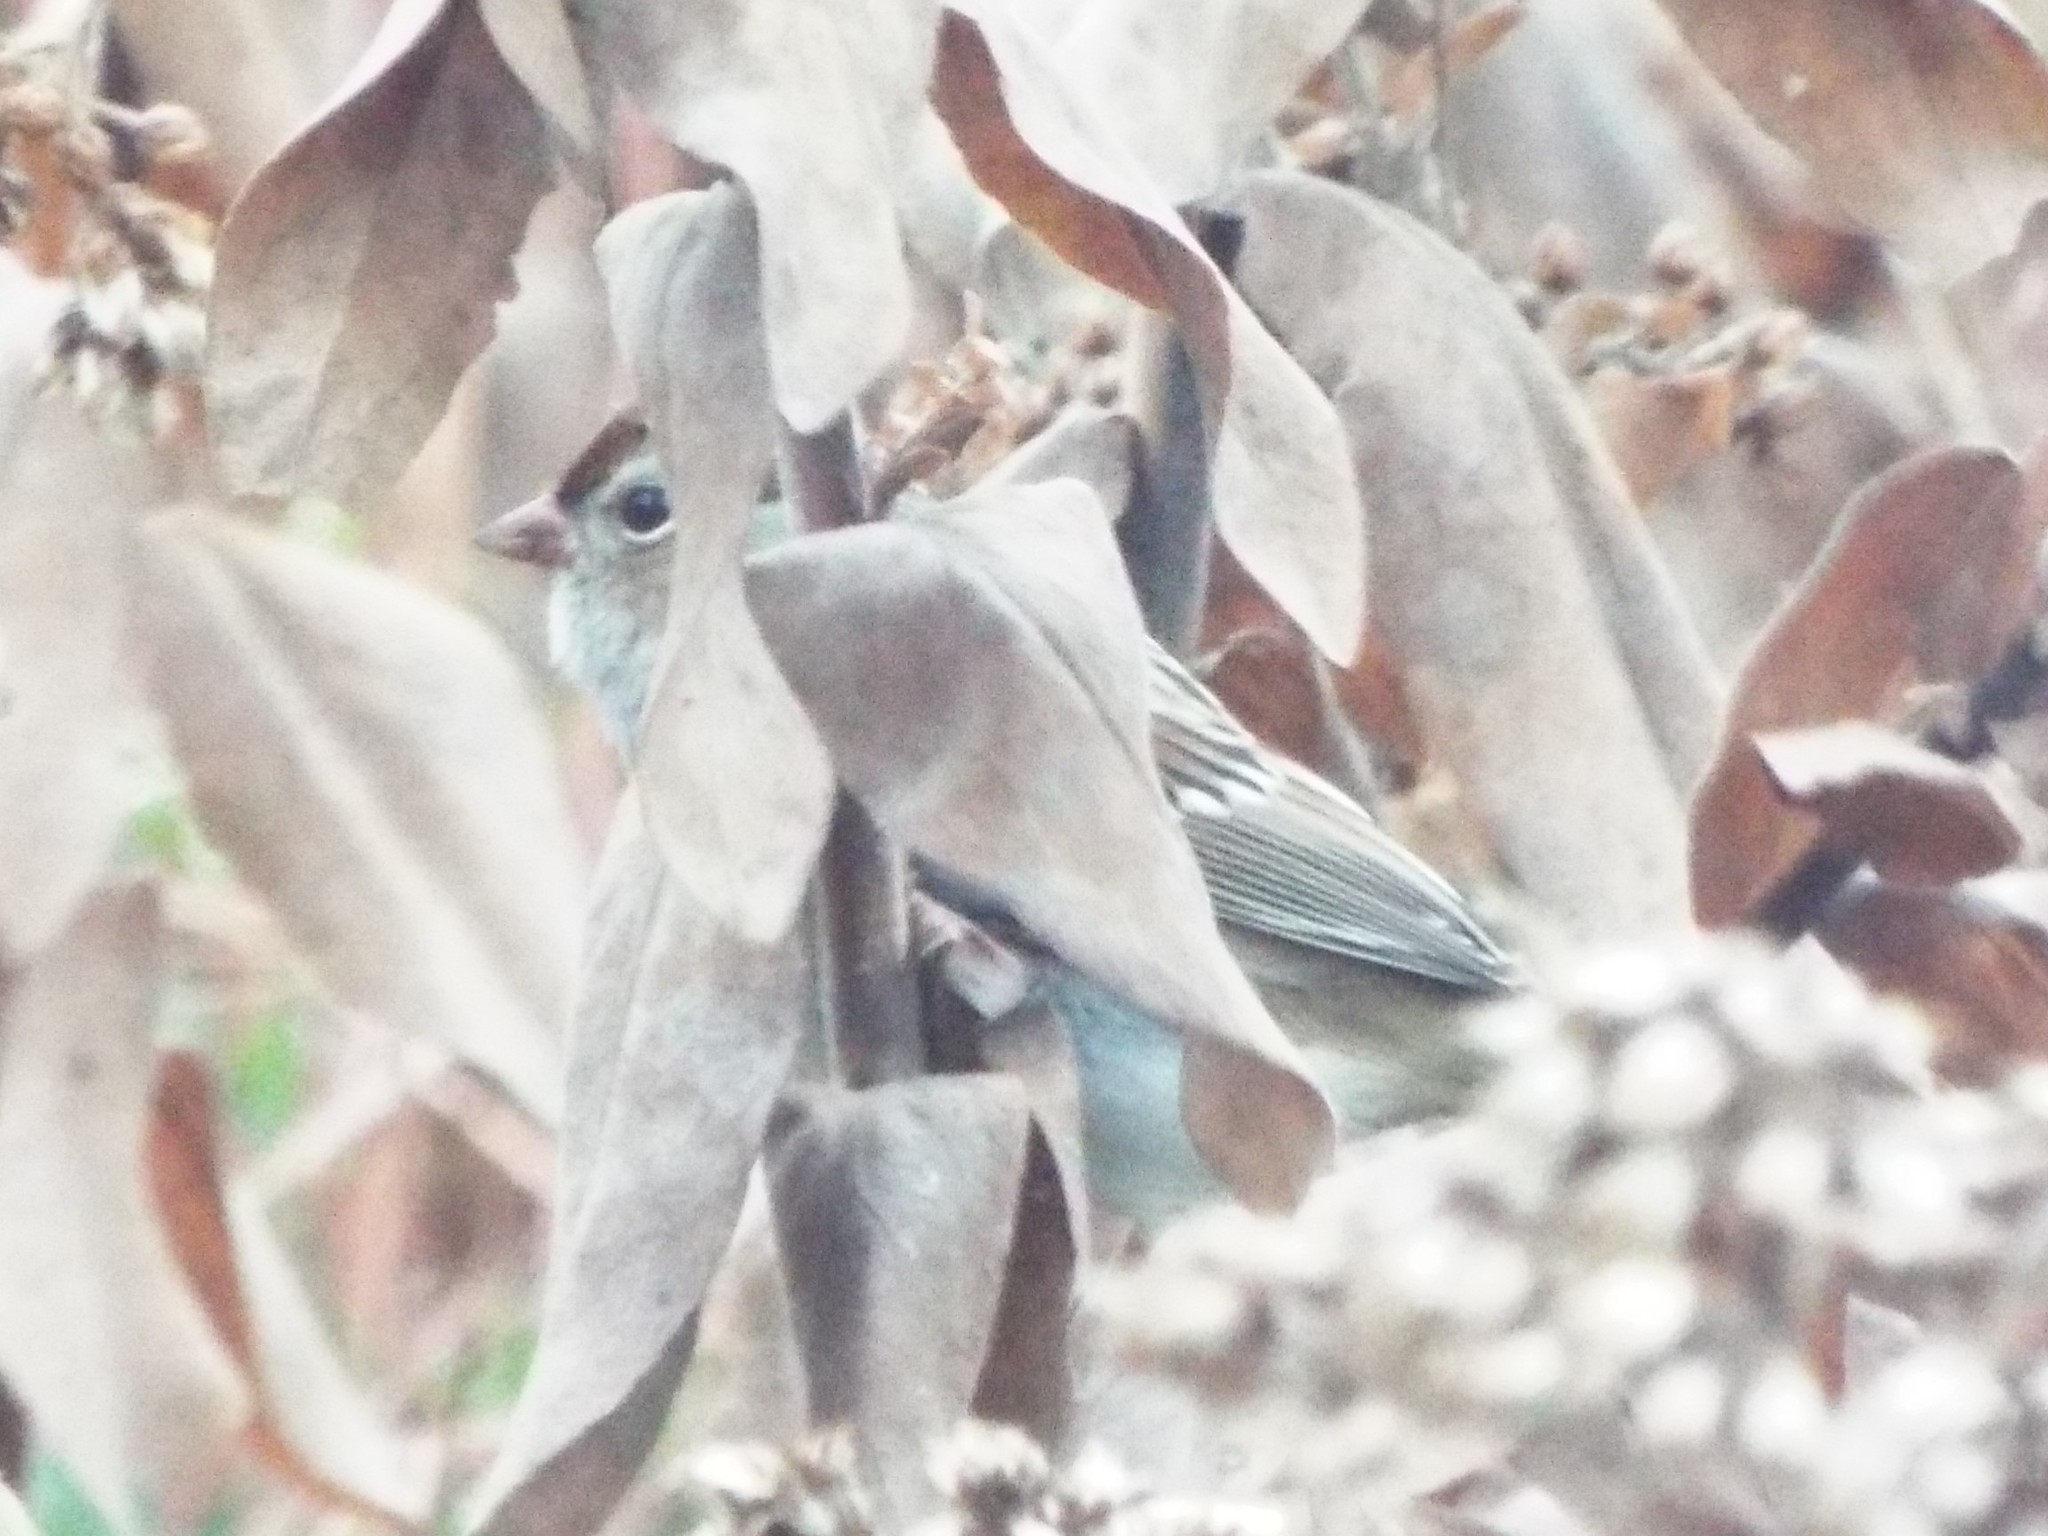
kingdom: Animalia
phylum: Chordata
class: Aves
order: Passeriformes
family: Passerellidae
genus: Zonotrichia
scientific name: Zonotrichia leucophrys
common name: White-crowned sparrow
